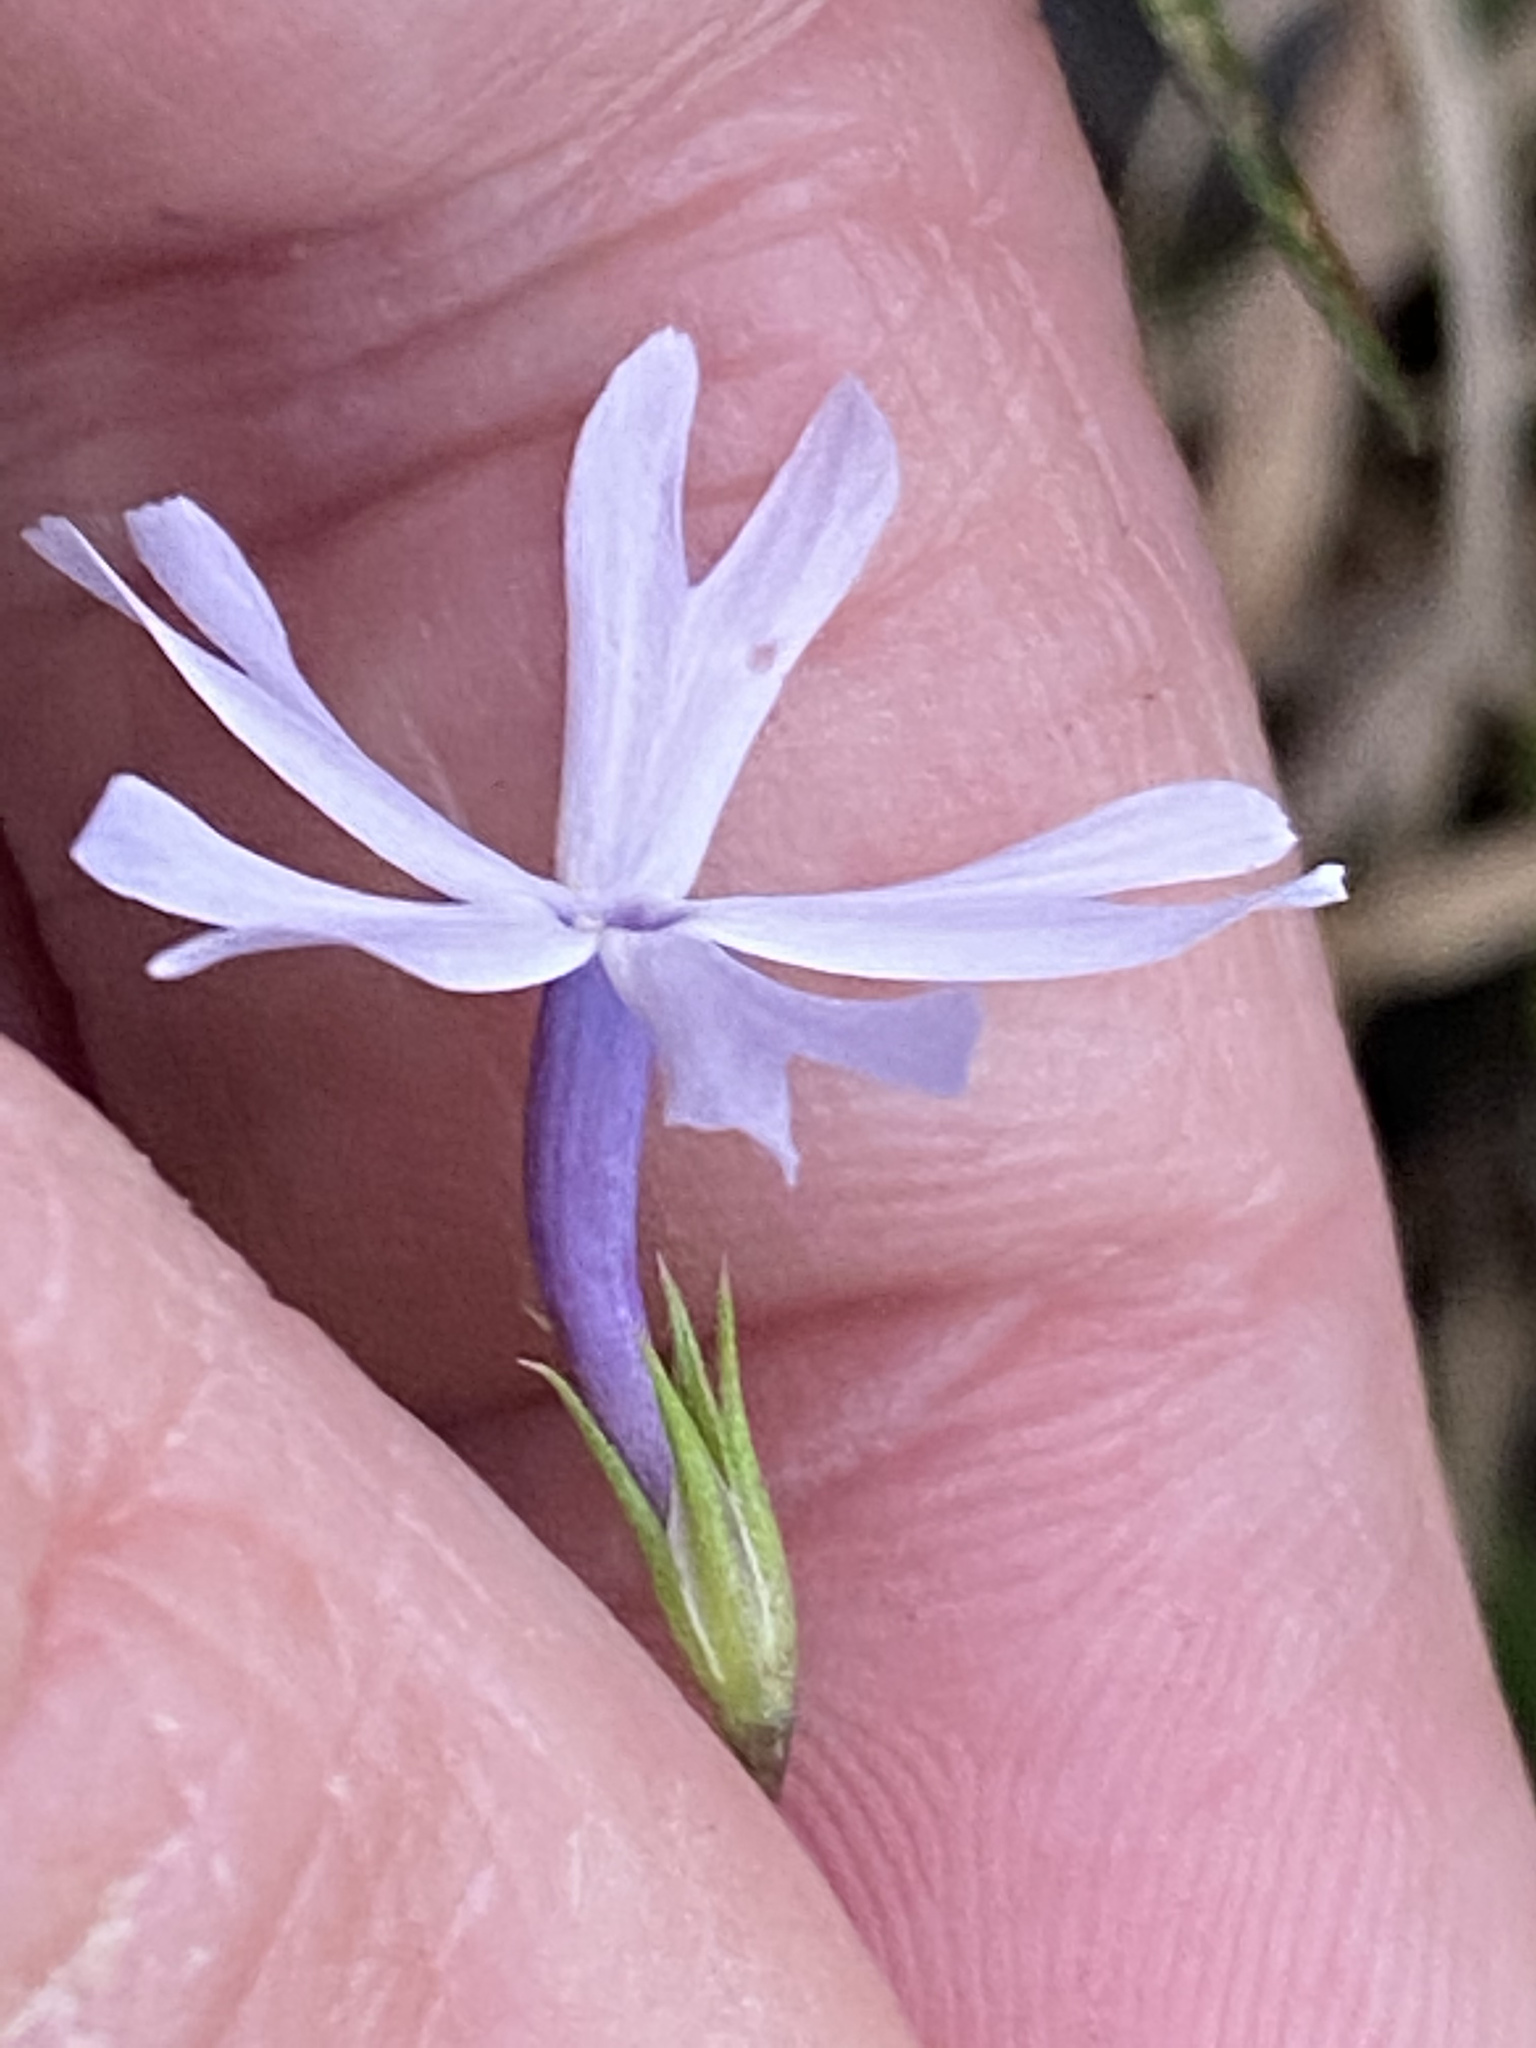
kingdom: Plantae
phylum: Tracheophyta
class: Magnoliopsida
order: Ericales
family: Polemoniaceae
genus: Phlox
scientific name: Phlox bifida
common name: Sand phlox
